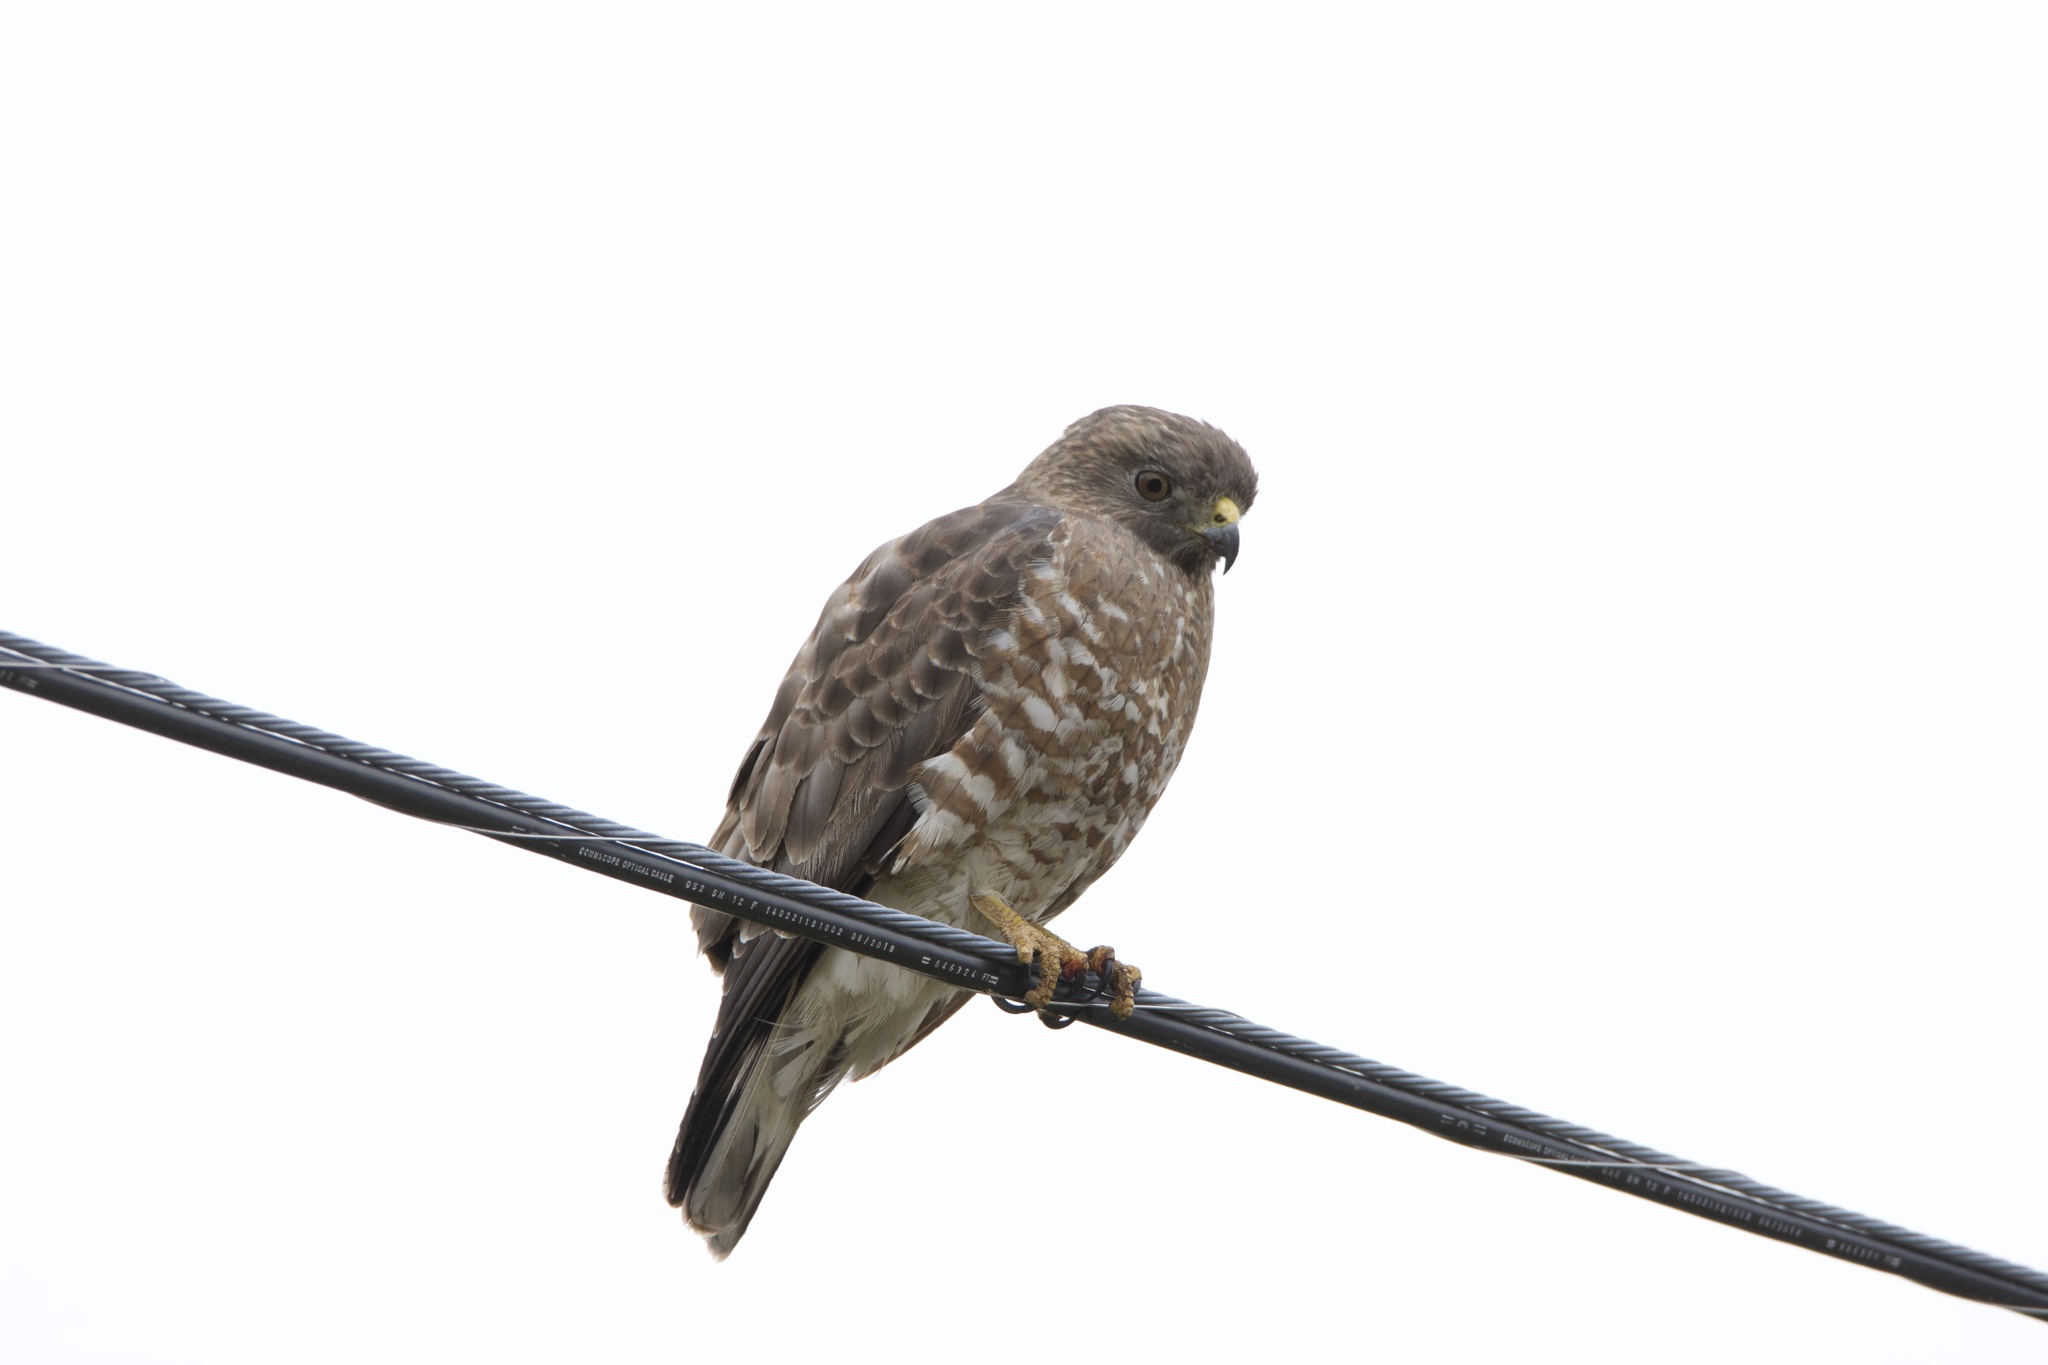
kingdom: Animalia
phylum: Chordata
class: Aves
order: Accipitriformes
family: Accipitridae
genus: Buteo
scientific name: Buteo platypterus
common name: Broad-winged hawk
